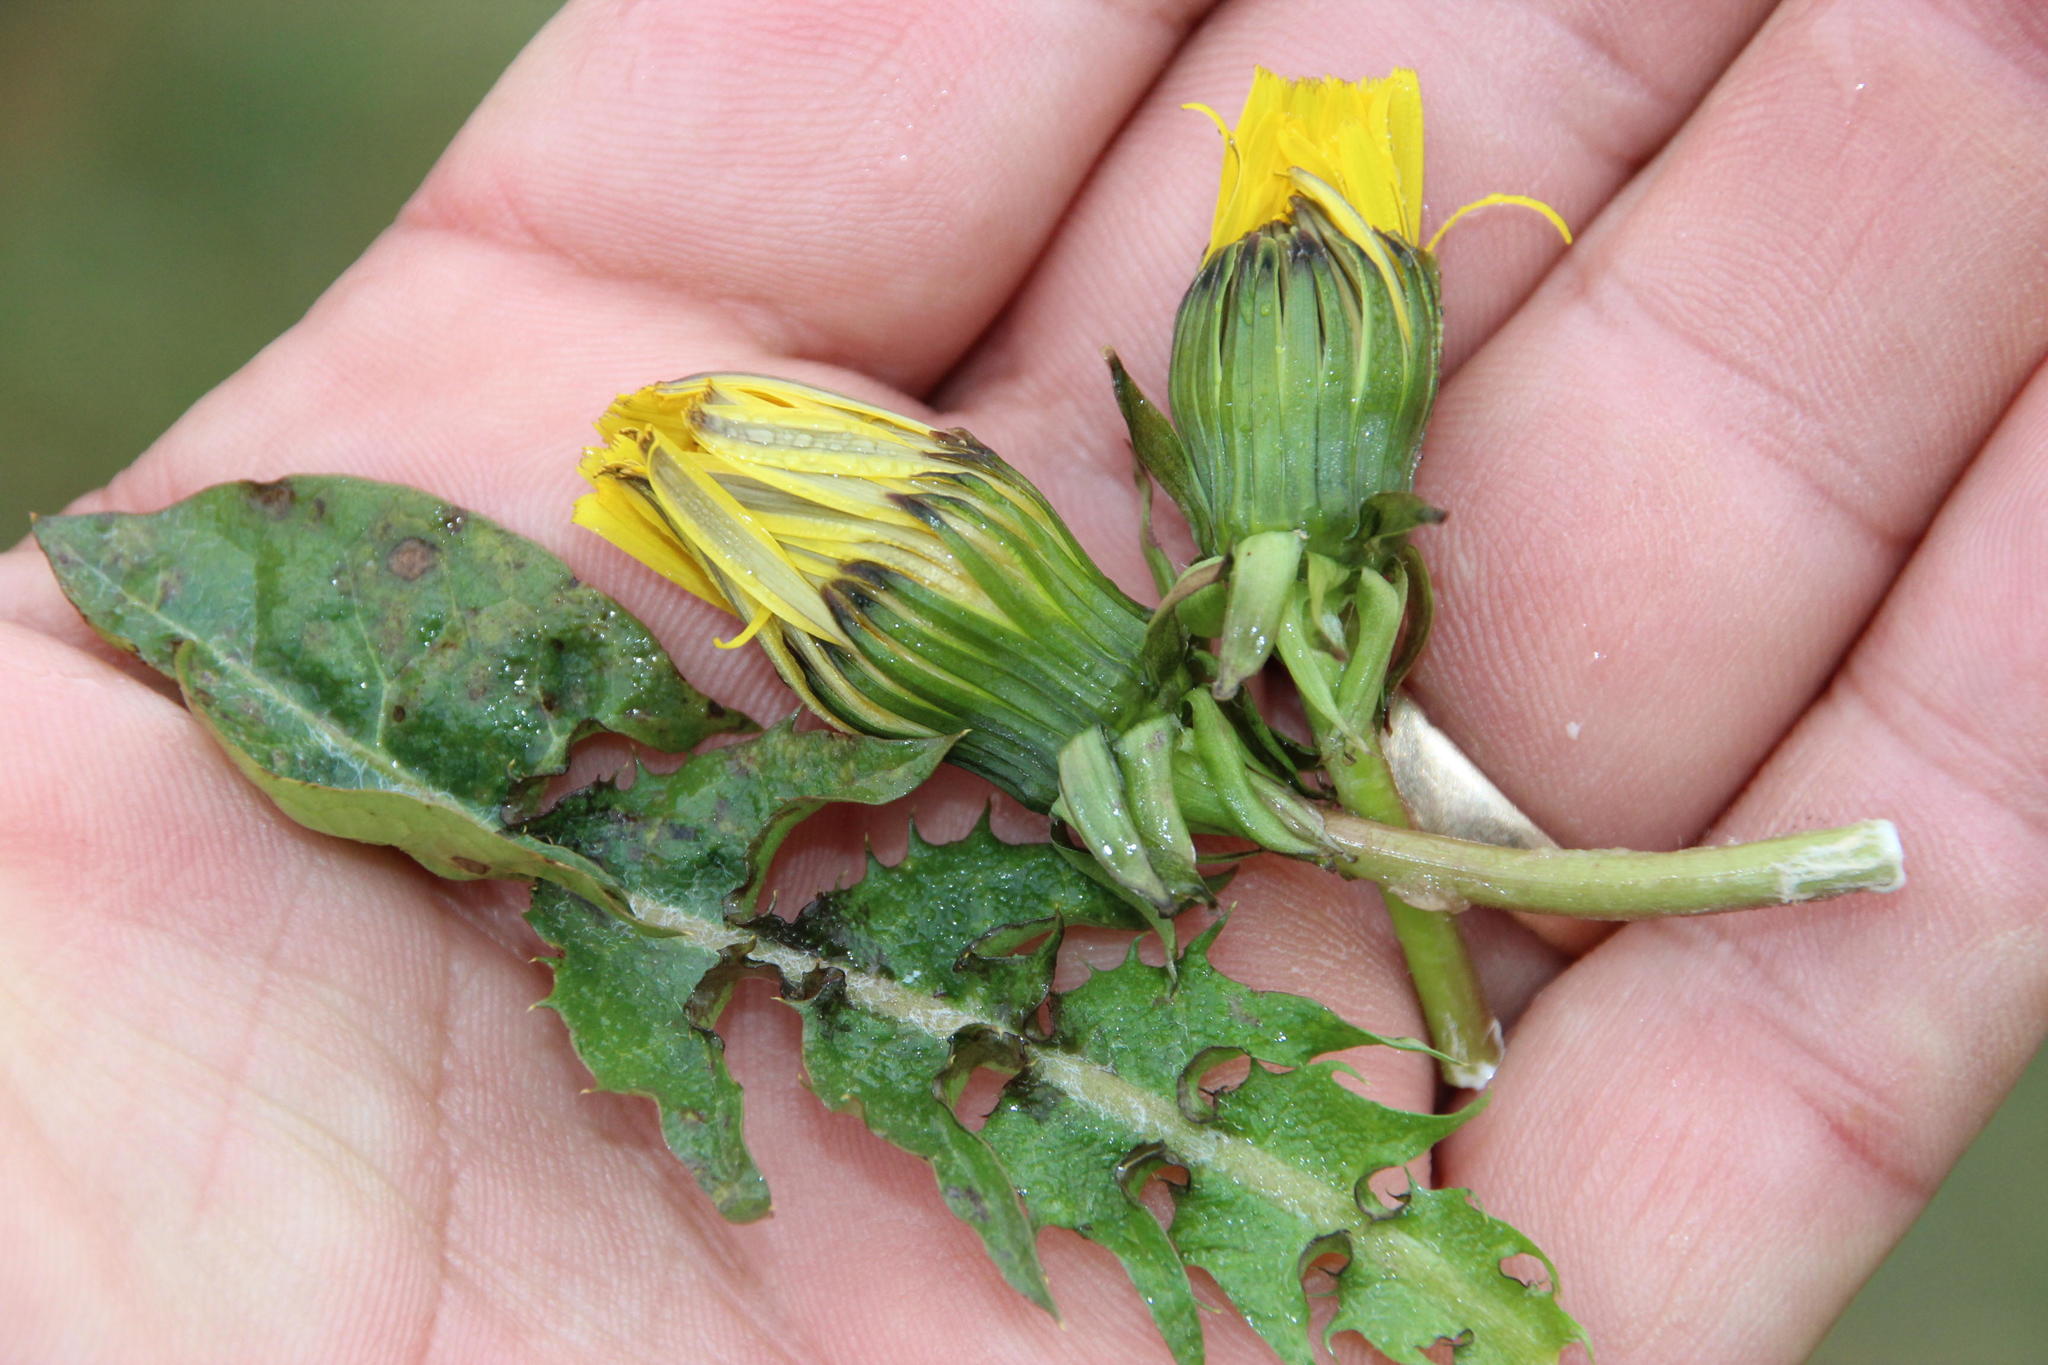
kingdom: Plantae
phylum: Tracheophyta
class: Magnoliopsida
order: Asterales
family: Asteraceae
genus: Taraxacum
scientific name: Taraxacum
